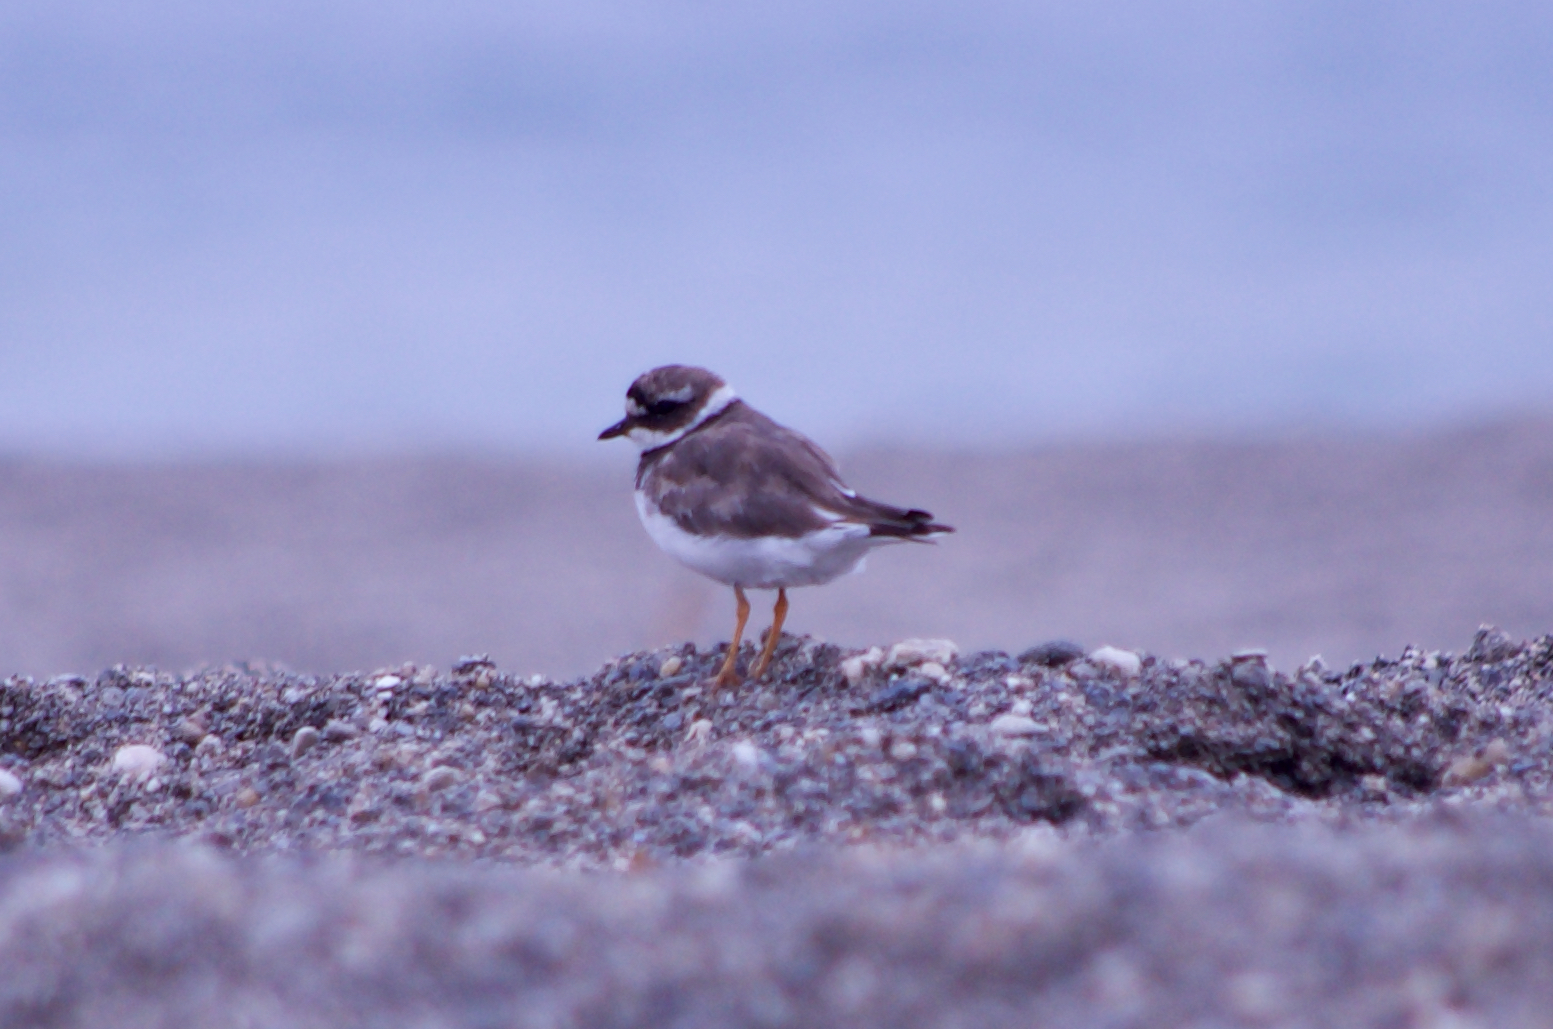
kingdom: Animalia
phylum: Chordata
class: Aves
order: Charadriiformes
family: Charadriidae
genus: Charadrius
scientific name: Charadrius hiaticula
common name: Common ringed plover
